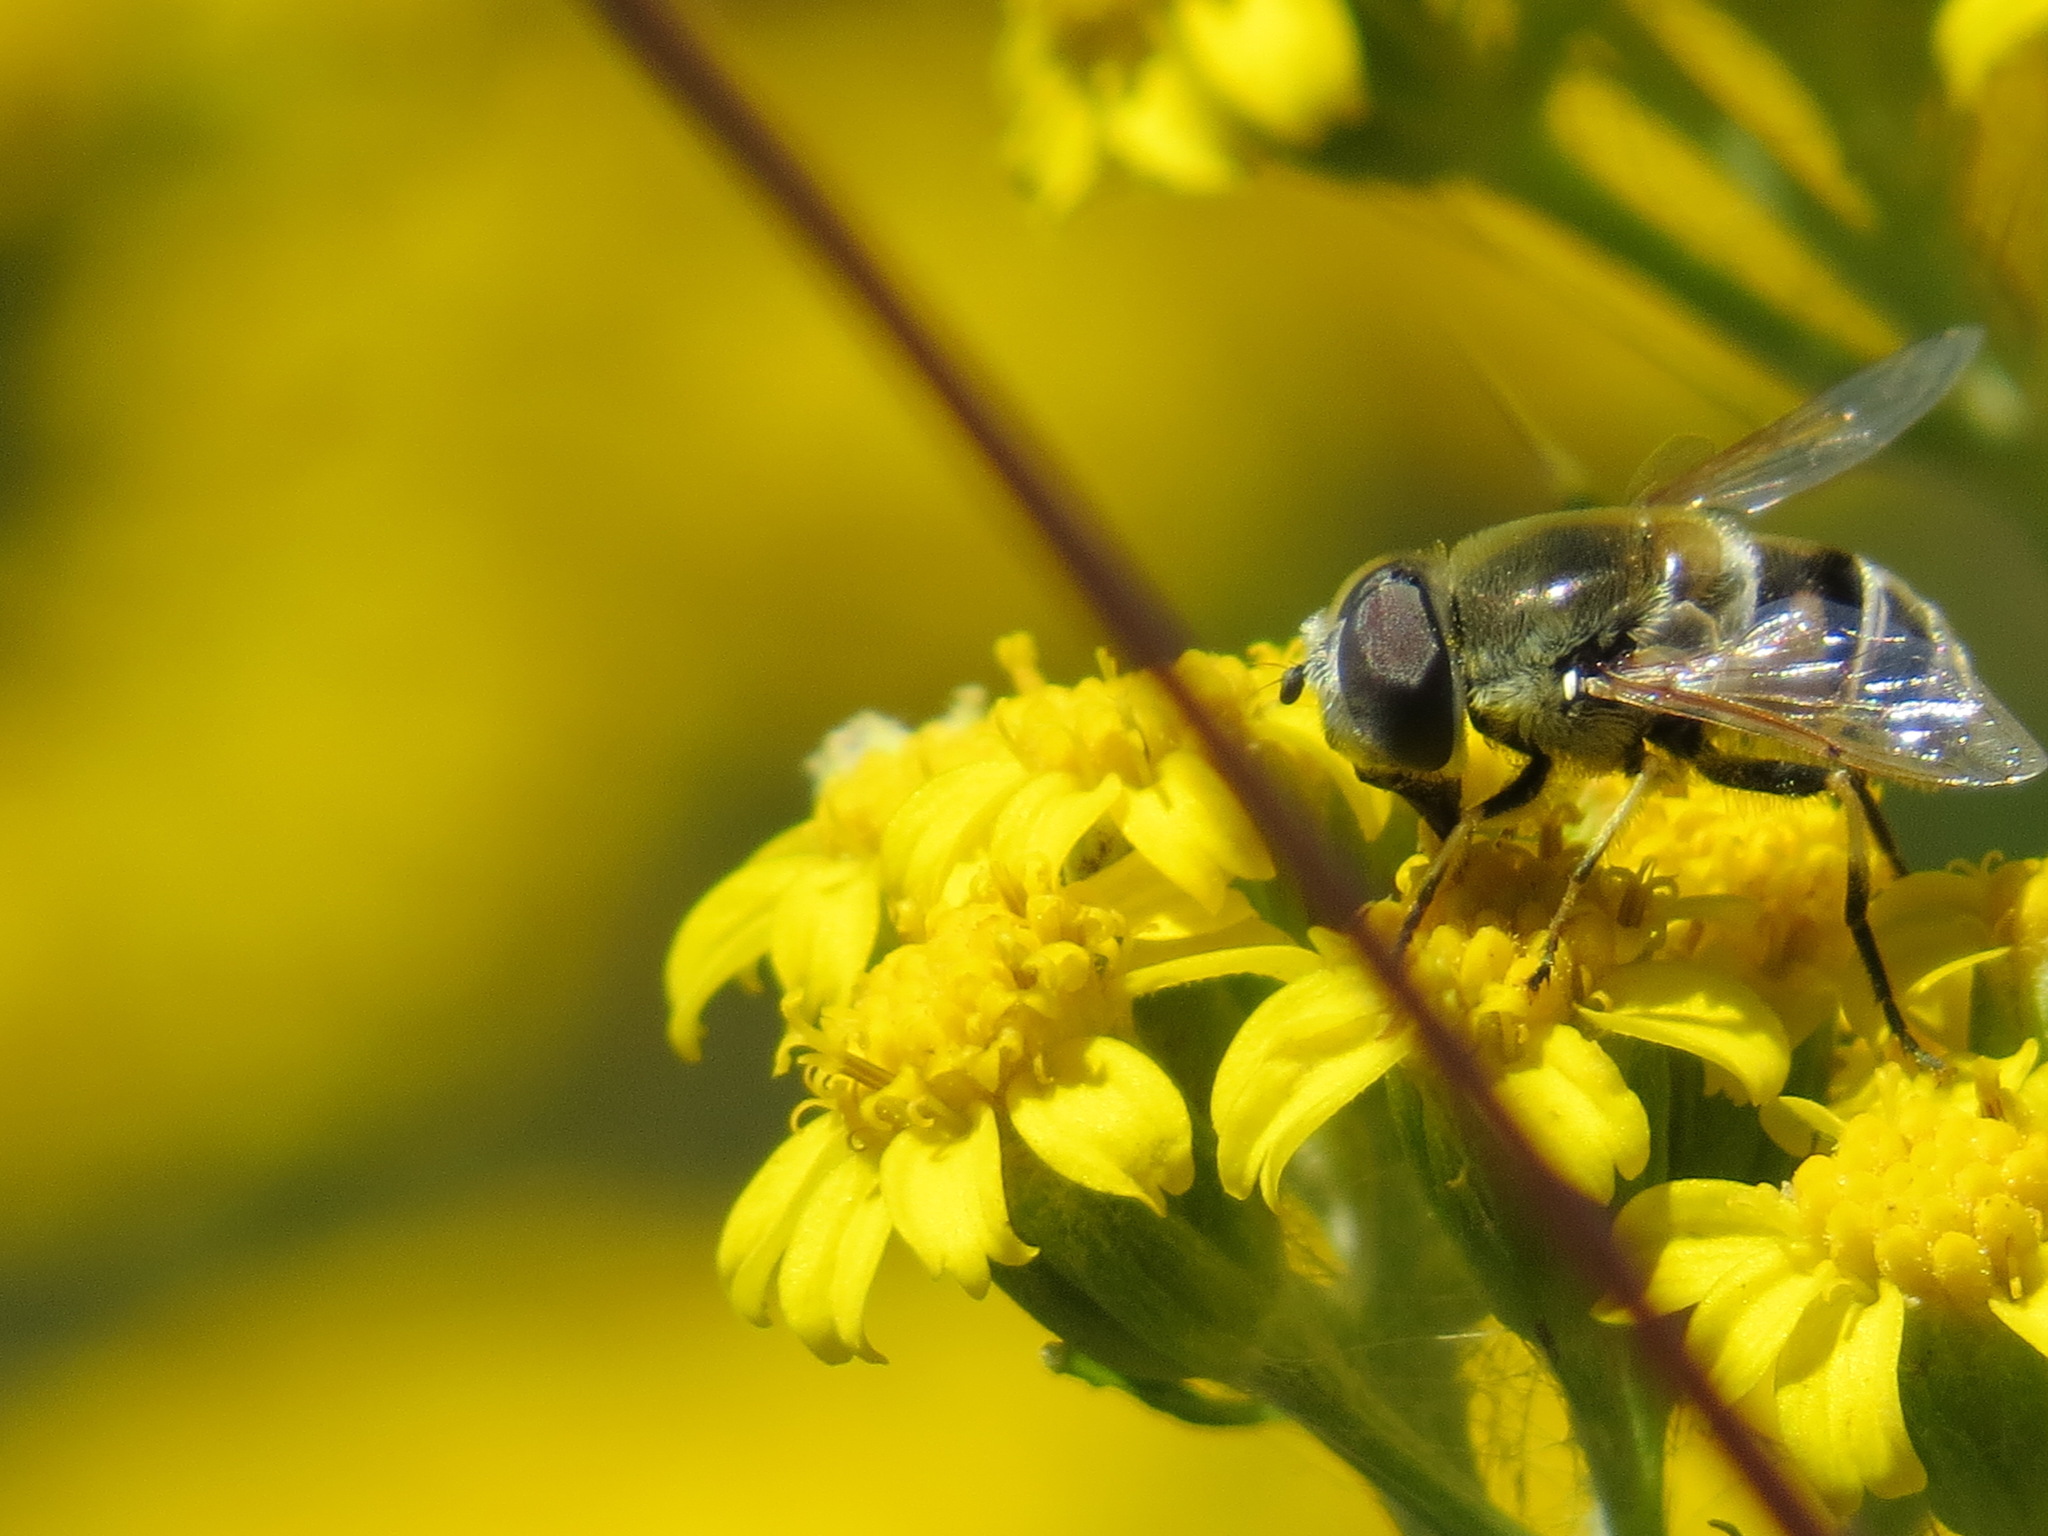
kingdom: Animalia
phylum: Arthropoda
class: Insecta
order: Diptera
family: Syrphidae
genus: Eristalis
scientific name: Eristalis stipator
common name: Yellow-shouldered drone fly
